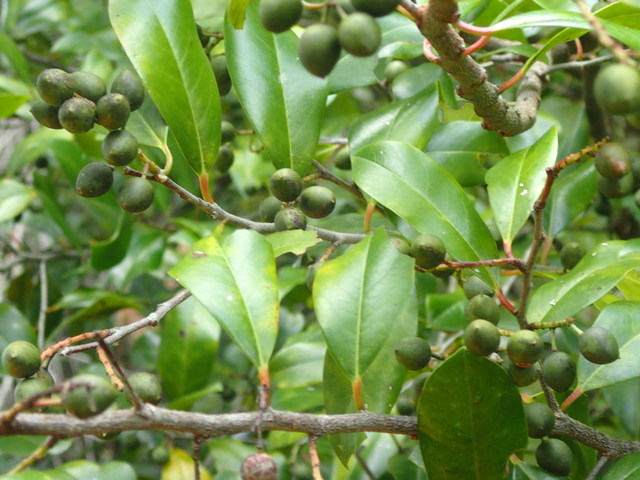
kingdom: Plantae
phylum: Tracheophyta
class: Magnoliopsida
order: Rosales
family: Rosaceae
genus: Prunus
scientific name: Prunus caroliniana
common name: Carolina laurel cherry
